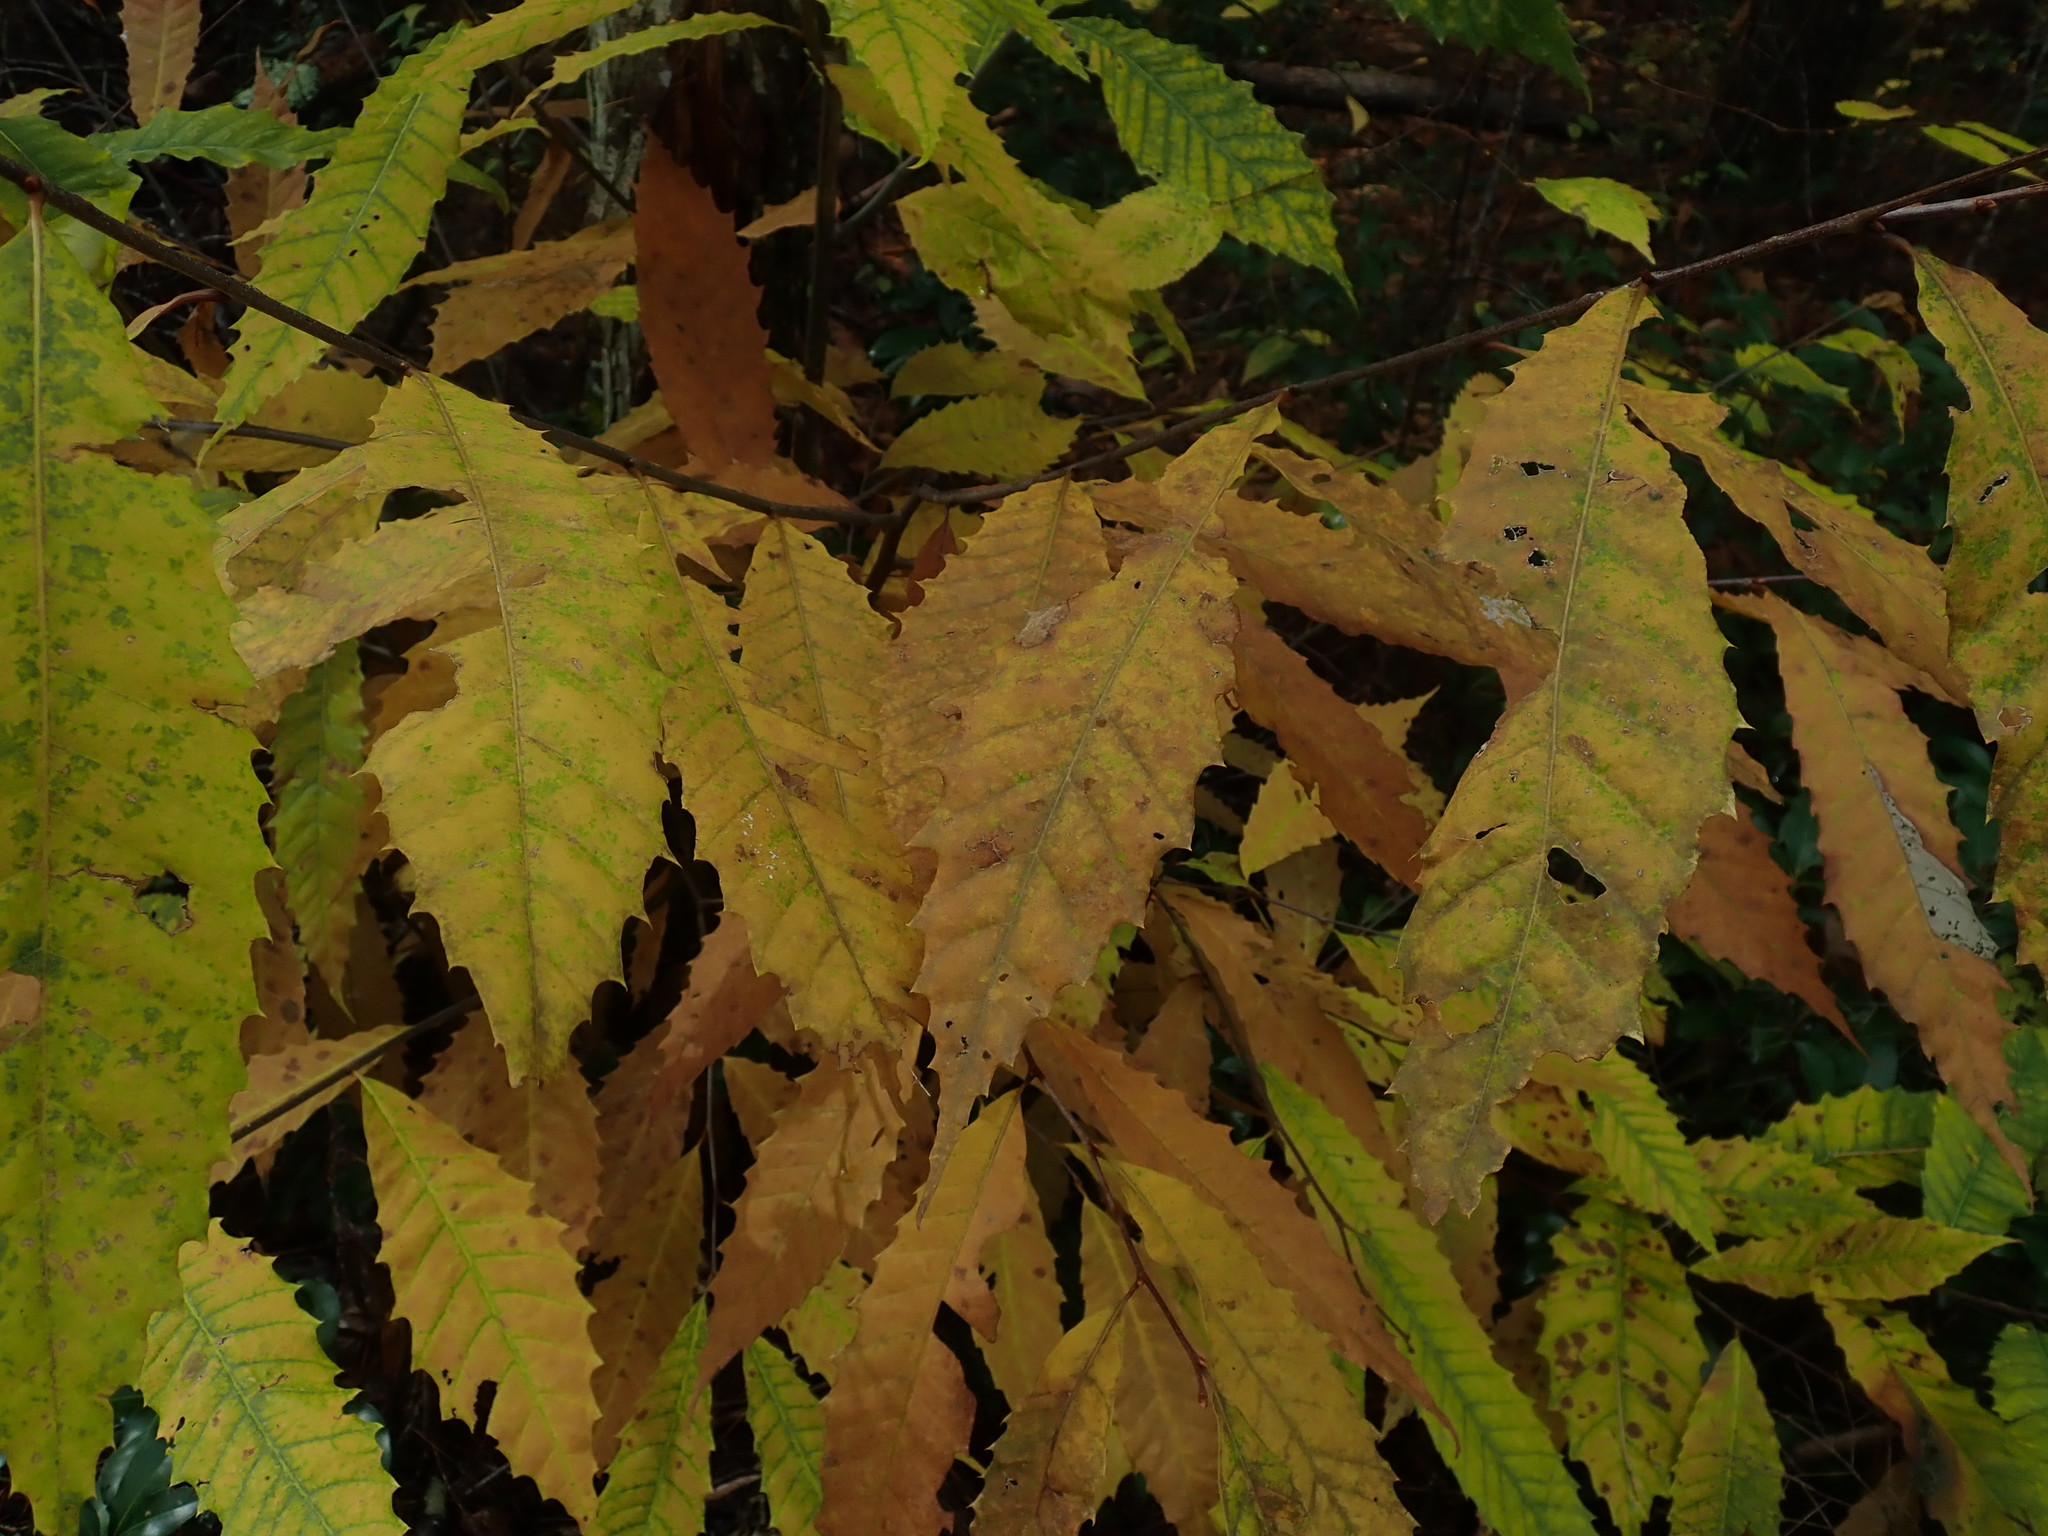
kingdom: Plantae
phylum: Tracheophyta
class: Magnoliopsida
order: Fagales
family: Fagaceae
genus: Castanea
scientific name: Castanea dentata
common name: American chestnut
